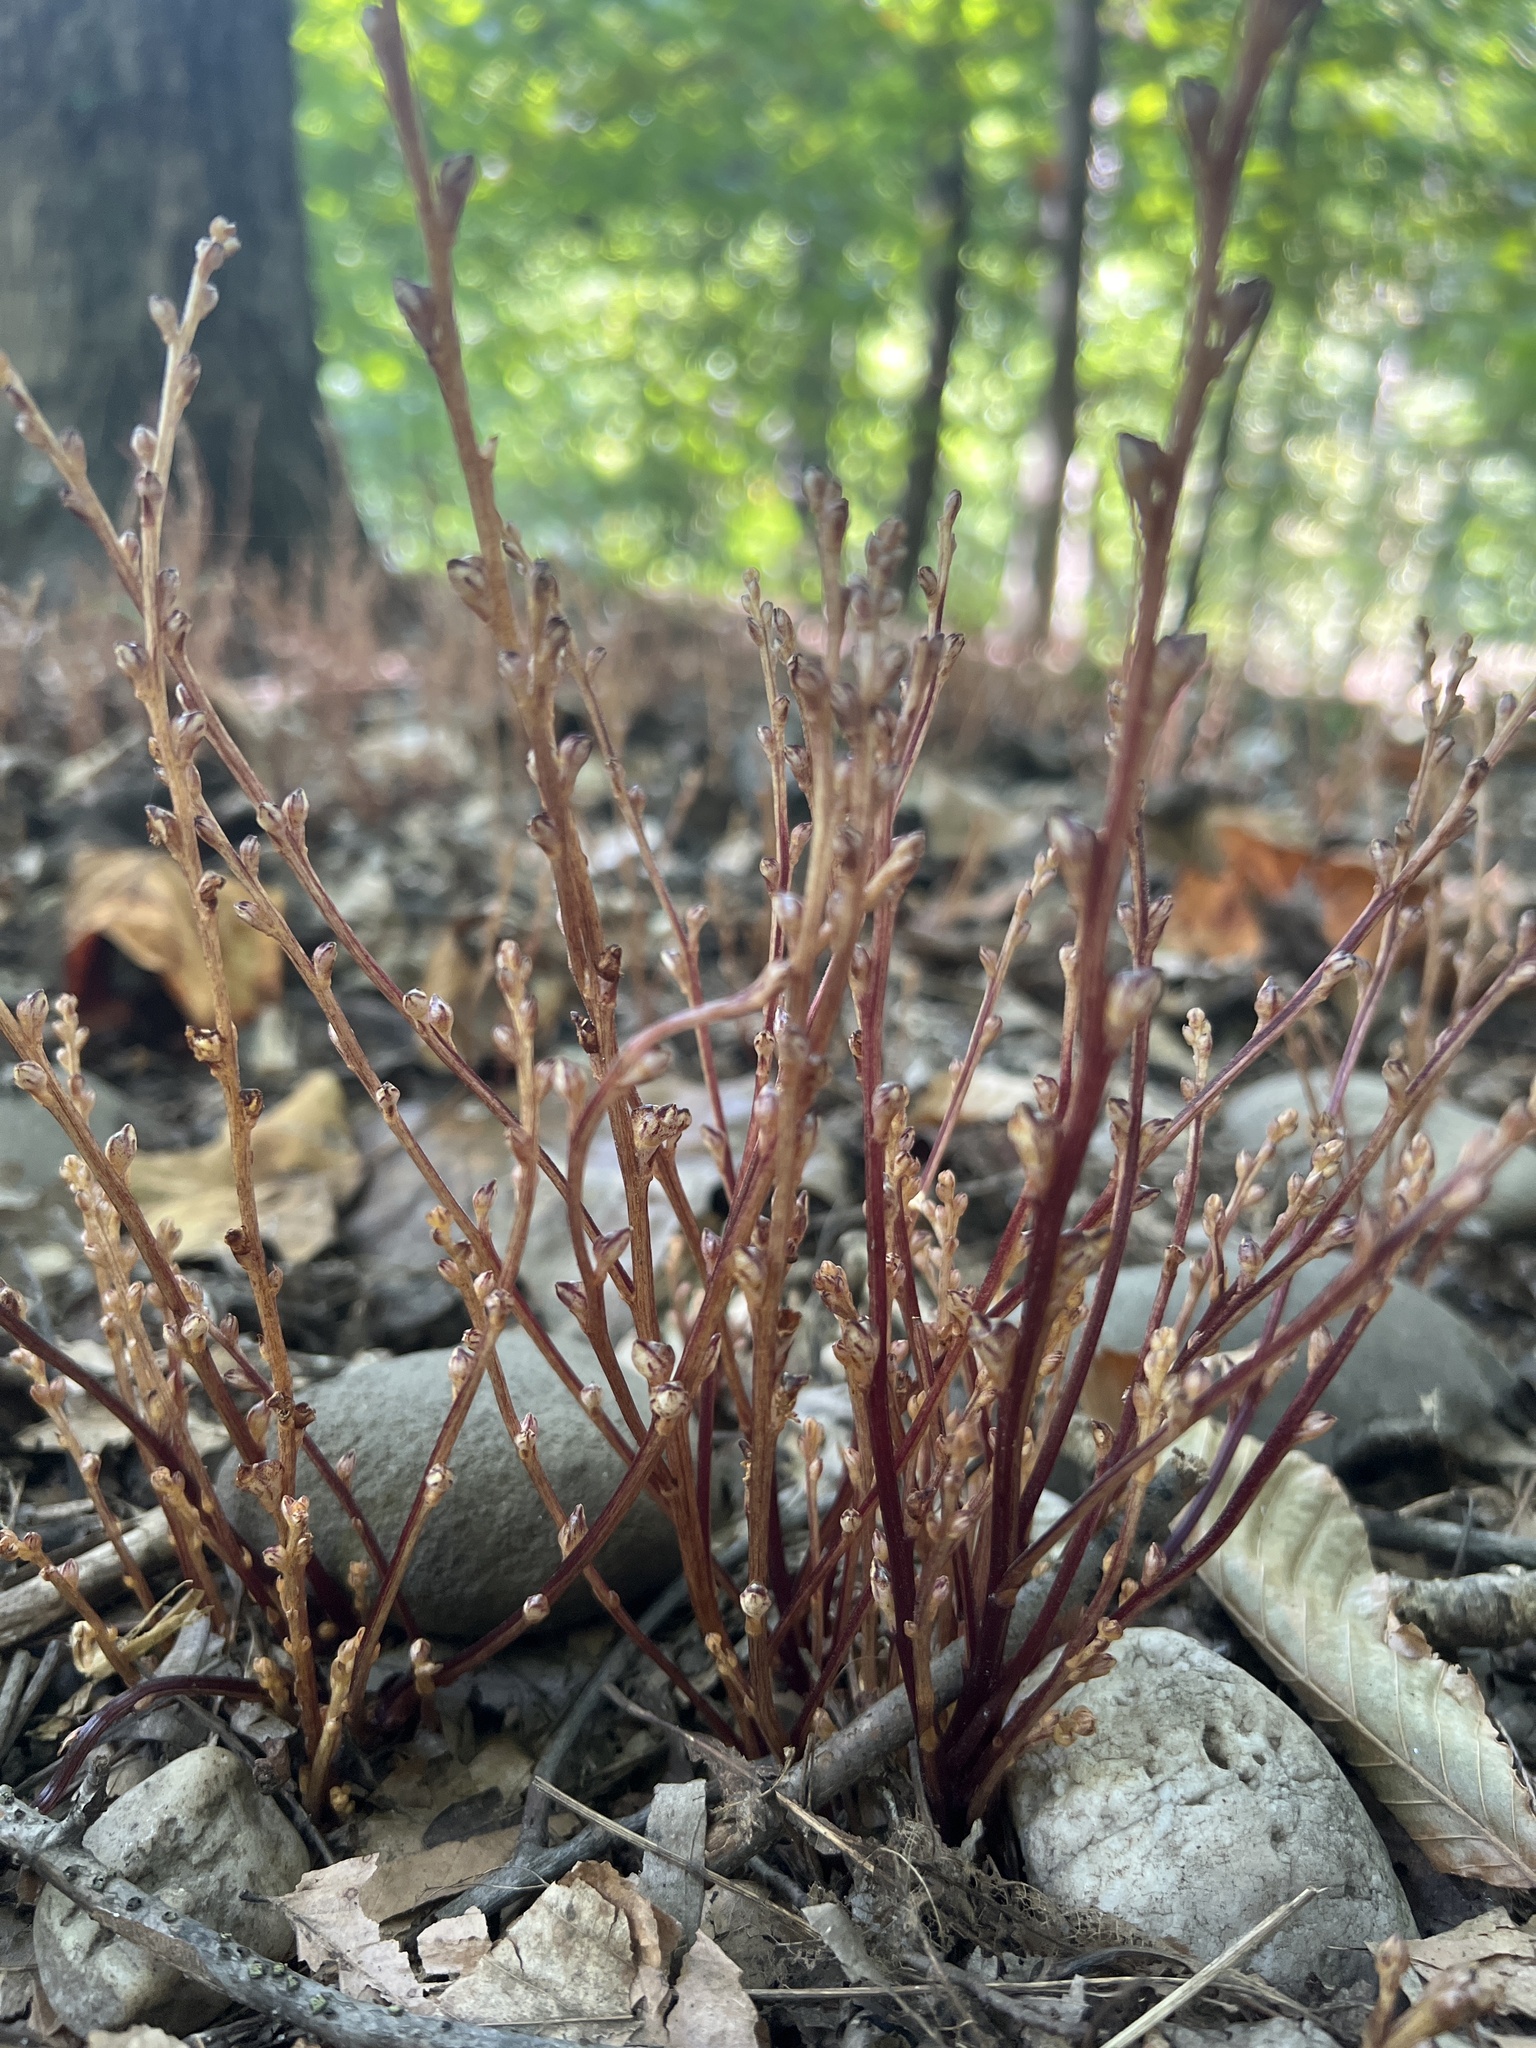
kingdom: Plantae
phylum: Tracheophyta
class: Magnoliopsida
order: Lamiales
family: Orobanchaceae
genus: Epifagus
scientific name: Epifagus virginiana
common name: Beechdrops
